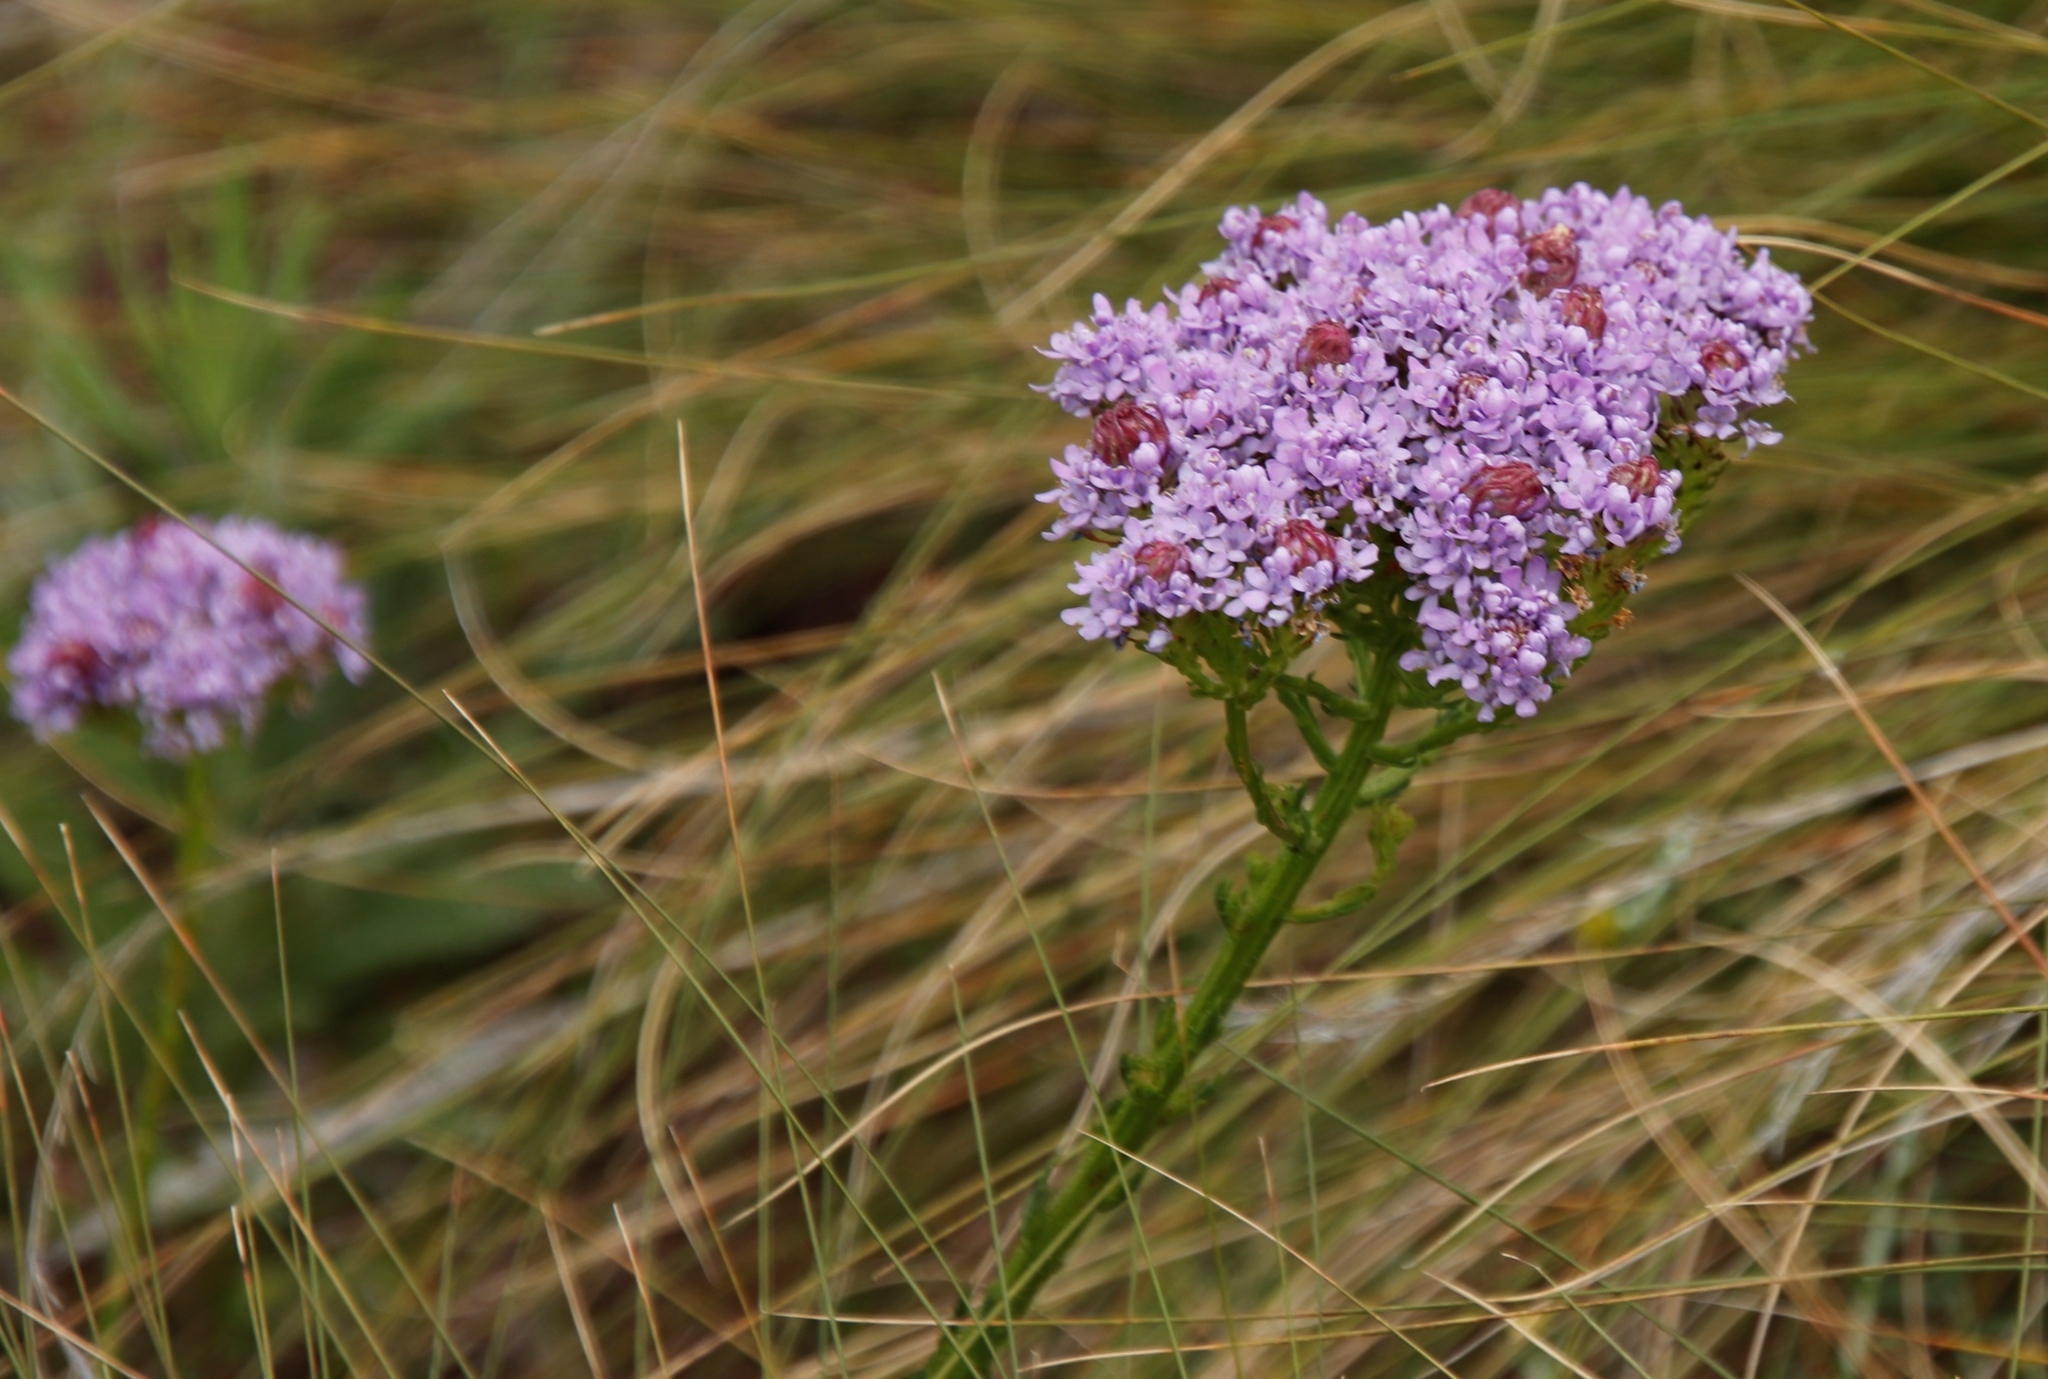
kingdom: Plantae
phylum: Tracheophyta
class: Magnoliopsida
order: Lamiales
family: Scrophulariaceae
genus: Pseudoselago
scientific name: Pseudoselago spuria
